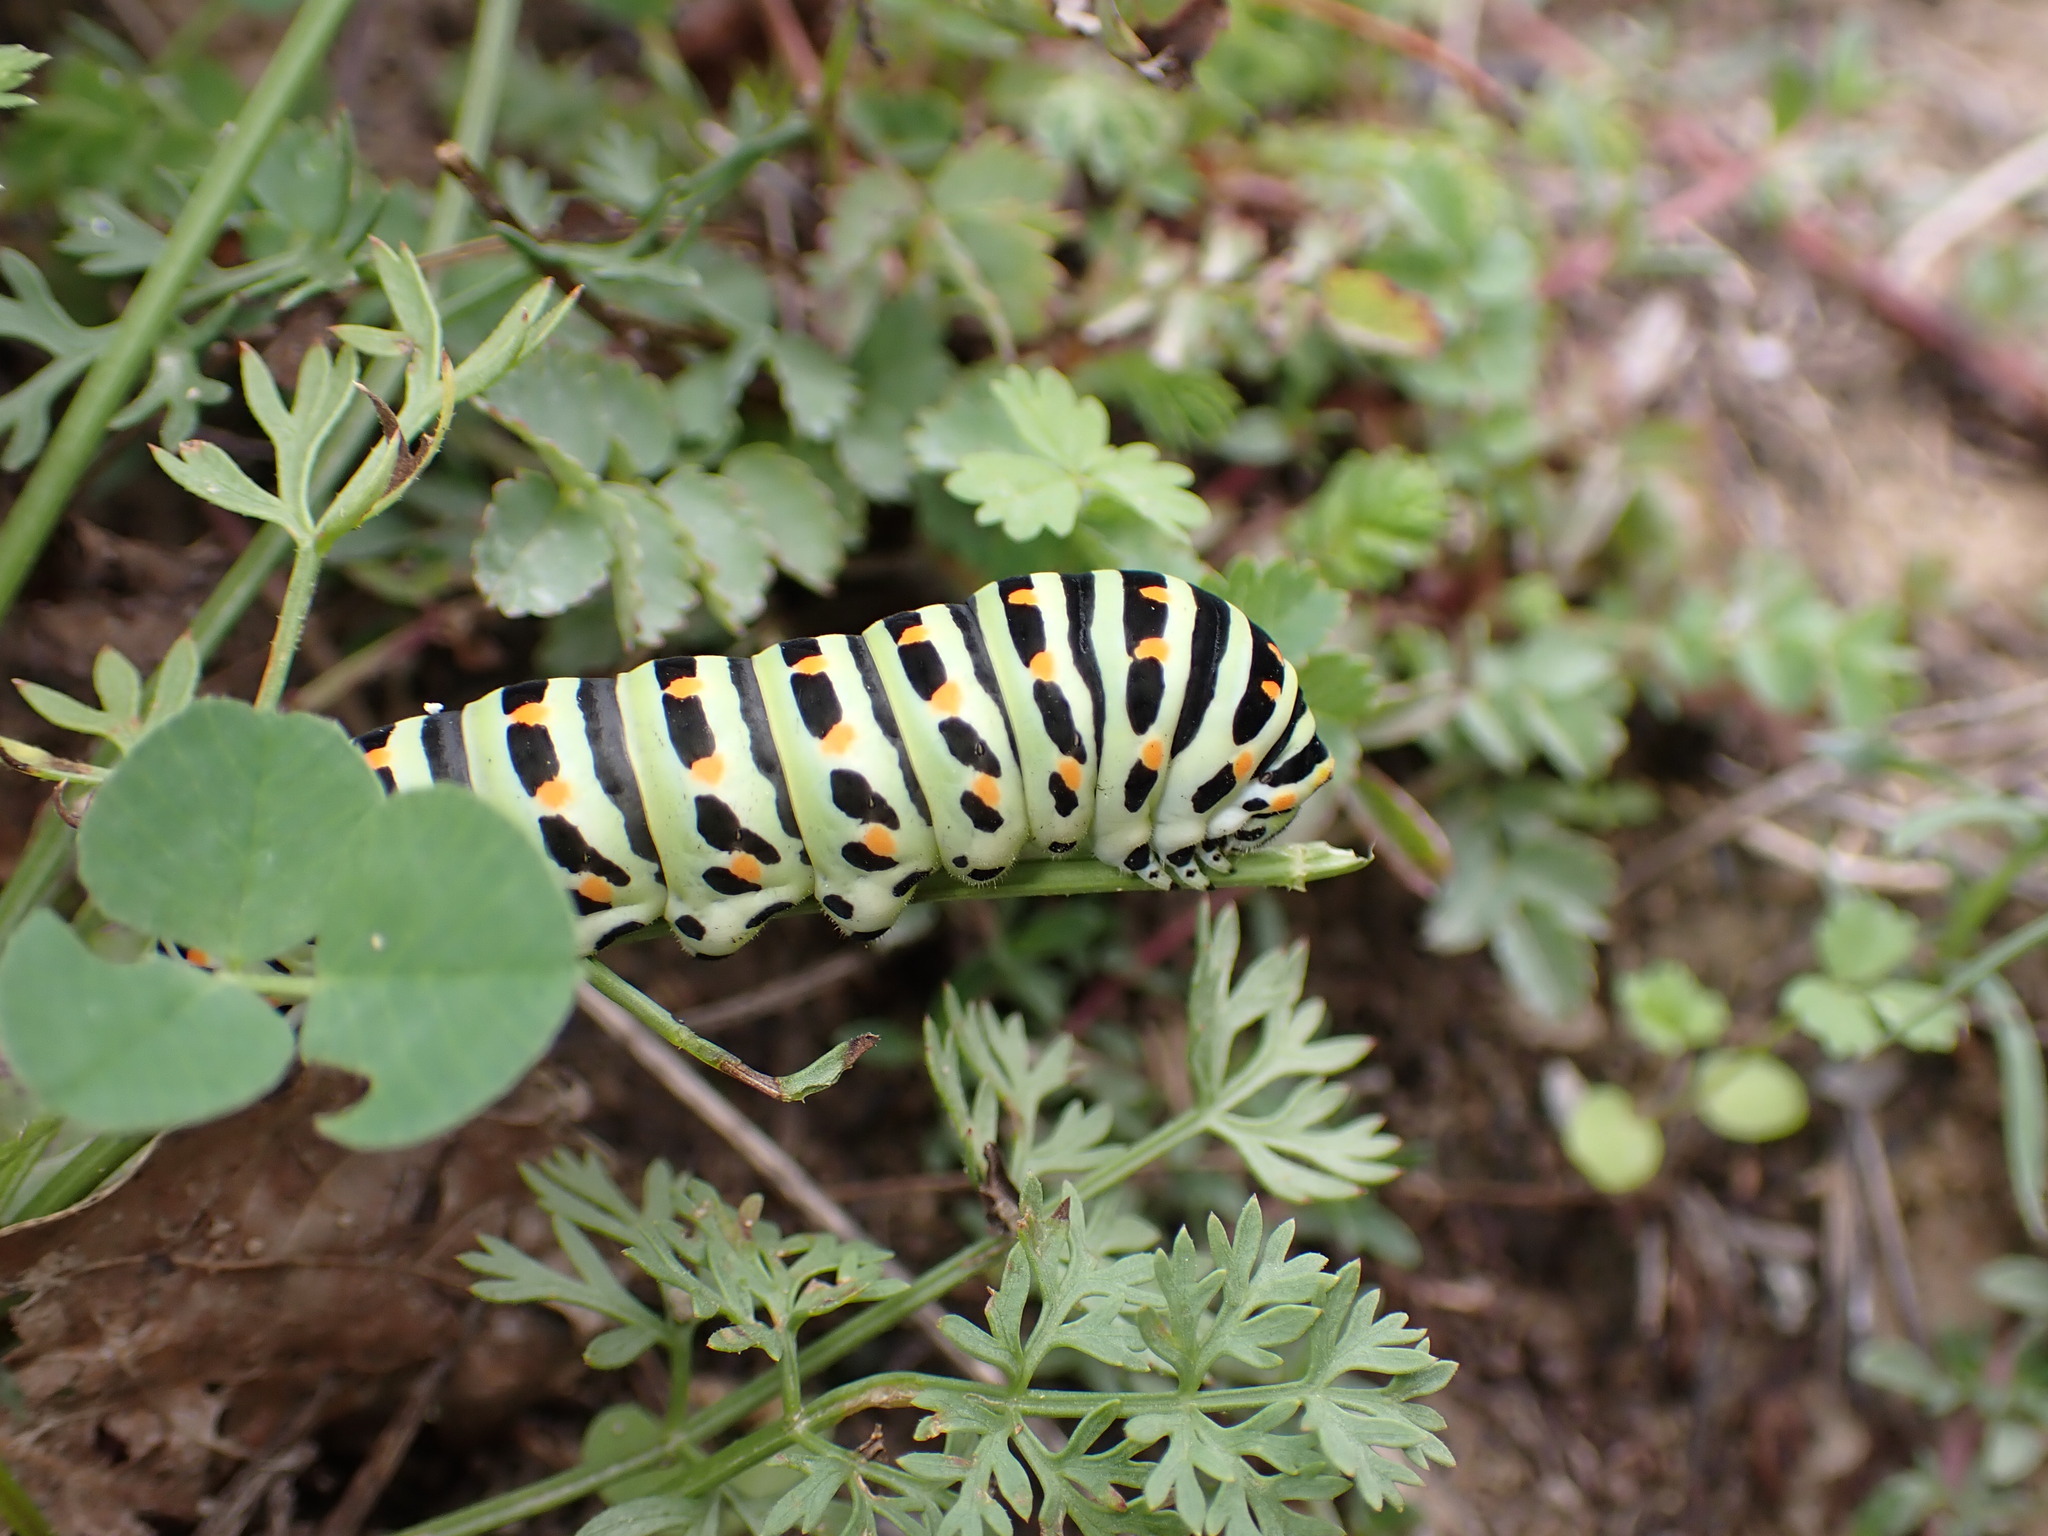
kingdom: Animalia
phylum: Arthropoda
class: Insecta
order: Lepidoptera
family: Papilionidae
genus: Papilio
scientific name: Papilio machaon
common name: Swallowtail
